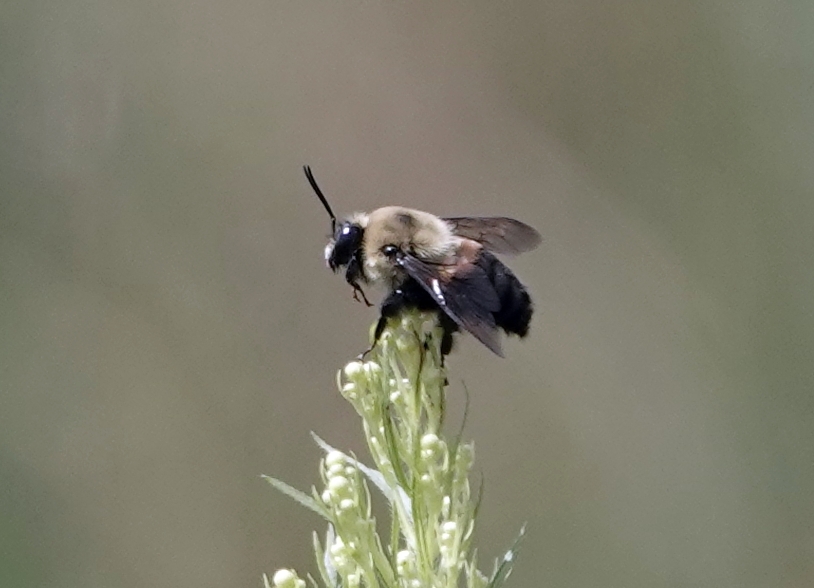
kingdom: Animalia
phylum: Arthropoda
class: Insecta
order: Hymenoptera
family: Apidae
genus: Bombus
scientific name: Bombus griseocollis
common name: Brown-belted bumble bee
